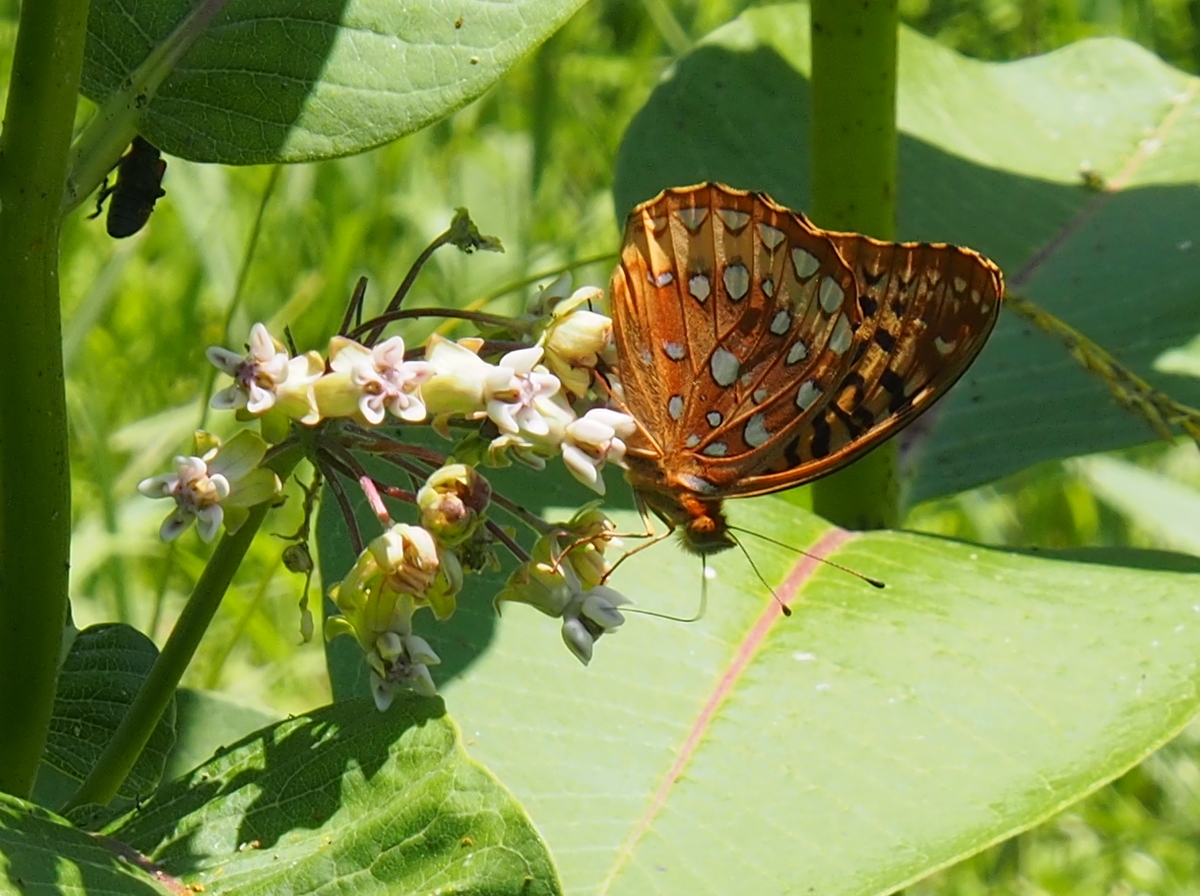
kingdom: Animalia
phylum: Arthropoda
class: Insecta
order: Lepidoptera
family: Nymphalidae
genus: Speyeria
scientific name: Speyeria cybele
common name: Great spangled fritillary
